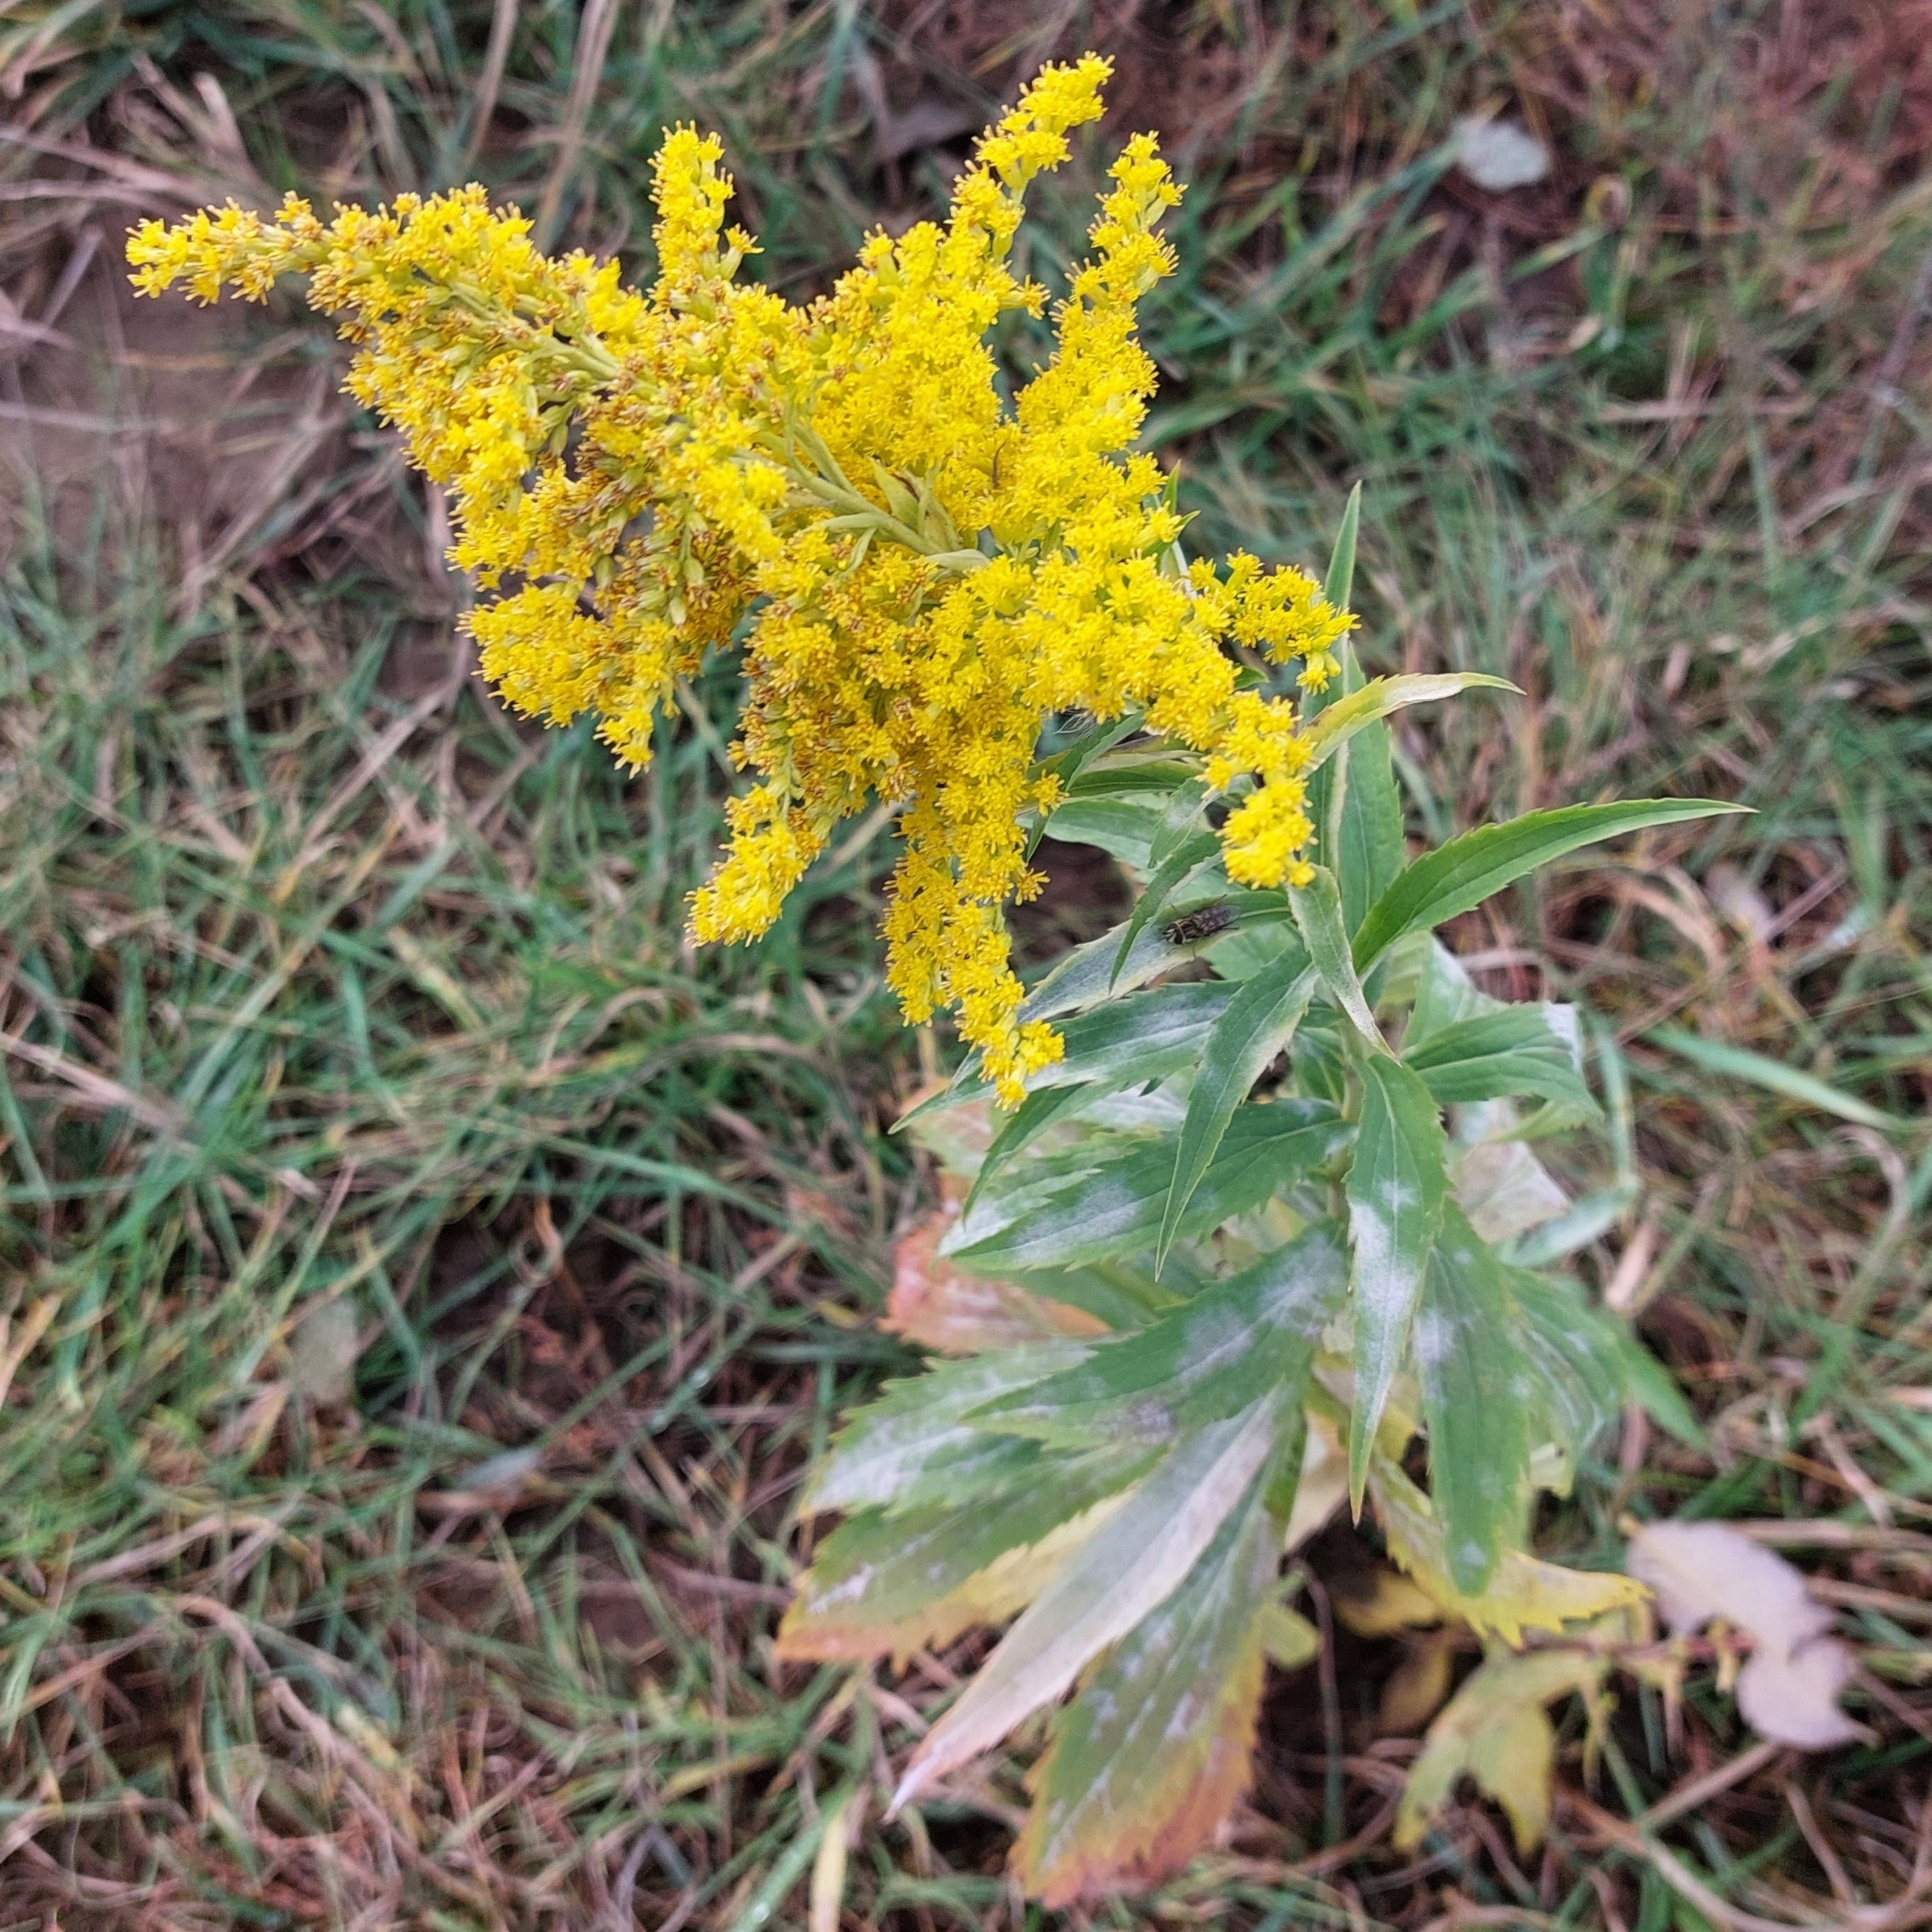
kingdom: Plantae
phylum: Tracheophyta
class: Magnoliopsida
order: Asterales
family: Asteraceae
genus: Solidago
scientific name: Solidago canadensis
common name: Canada goldenrod
